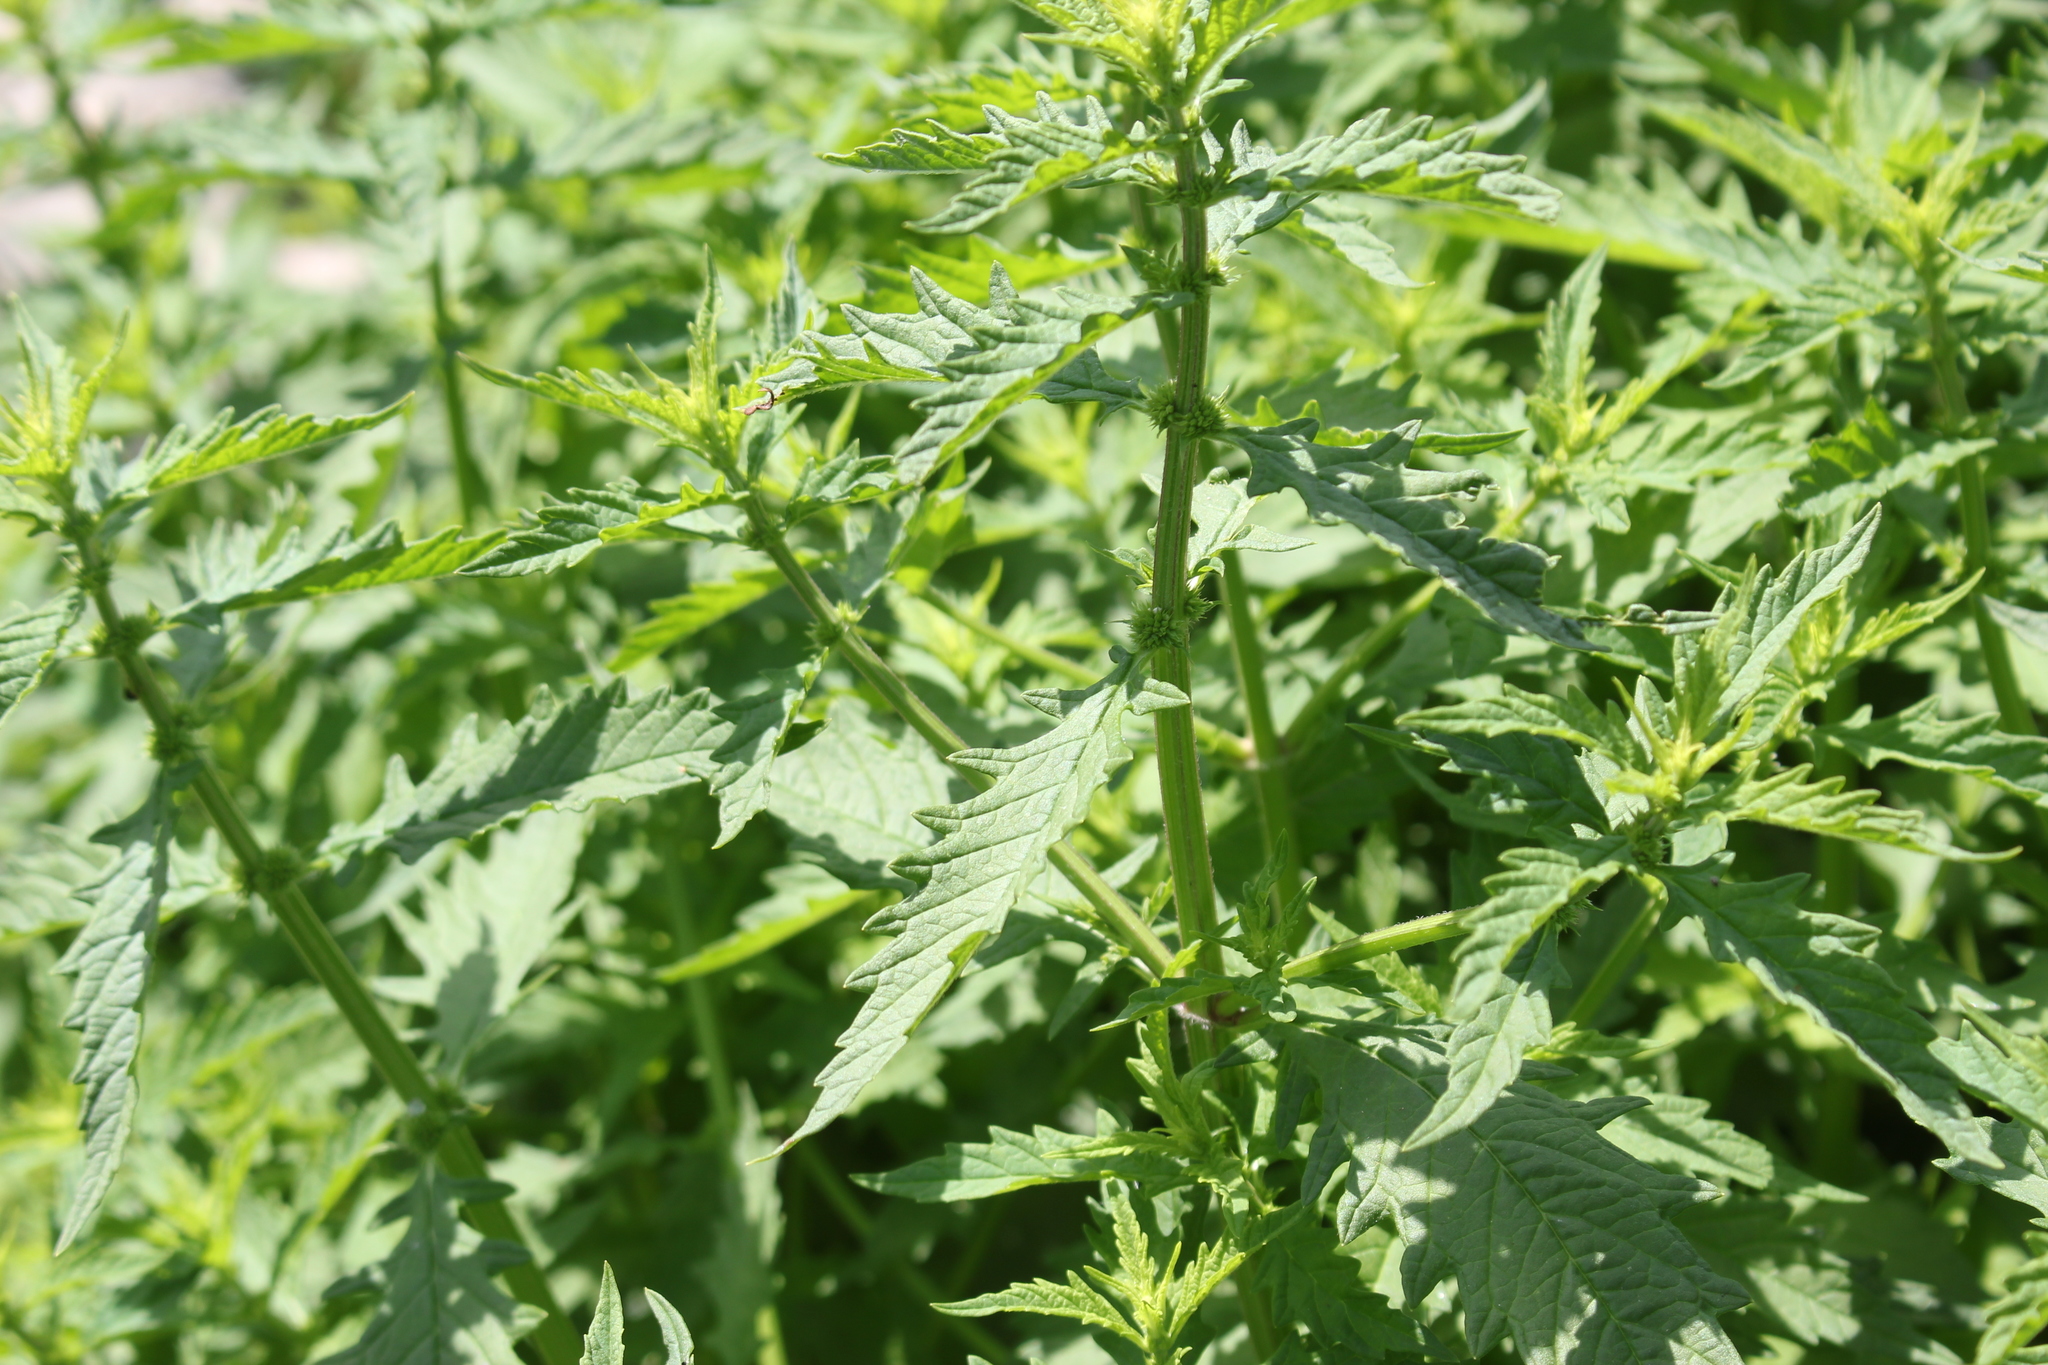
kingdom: Plantae
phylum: Tracheophyta
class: Magnoliopsida
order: Lamiales
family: Lamiaceae
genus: Lycopus
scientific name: Lycopus europaeus
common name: European bugleweed
